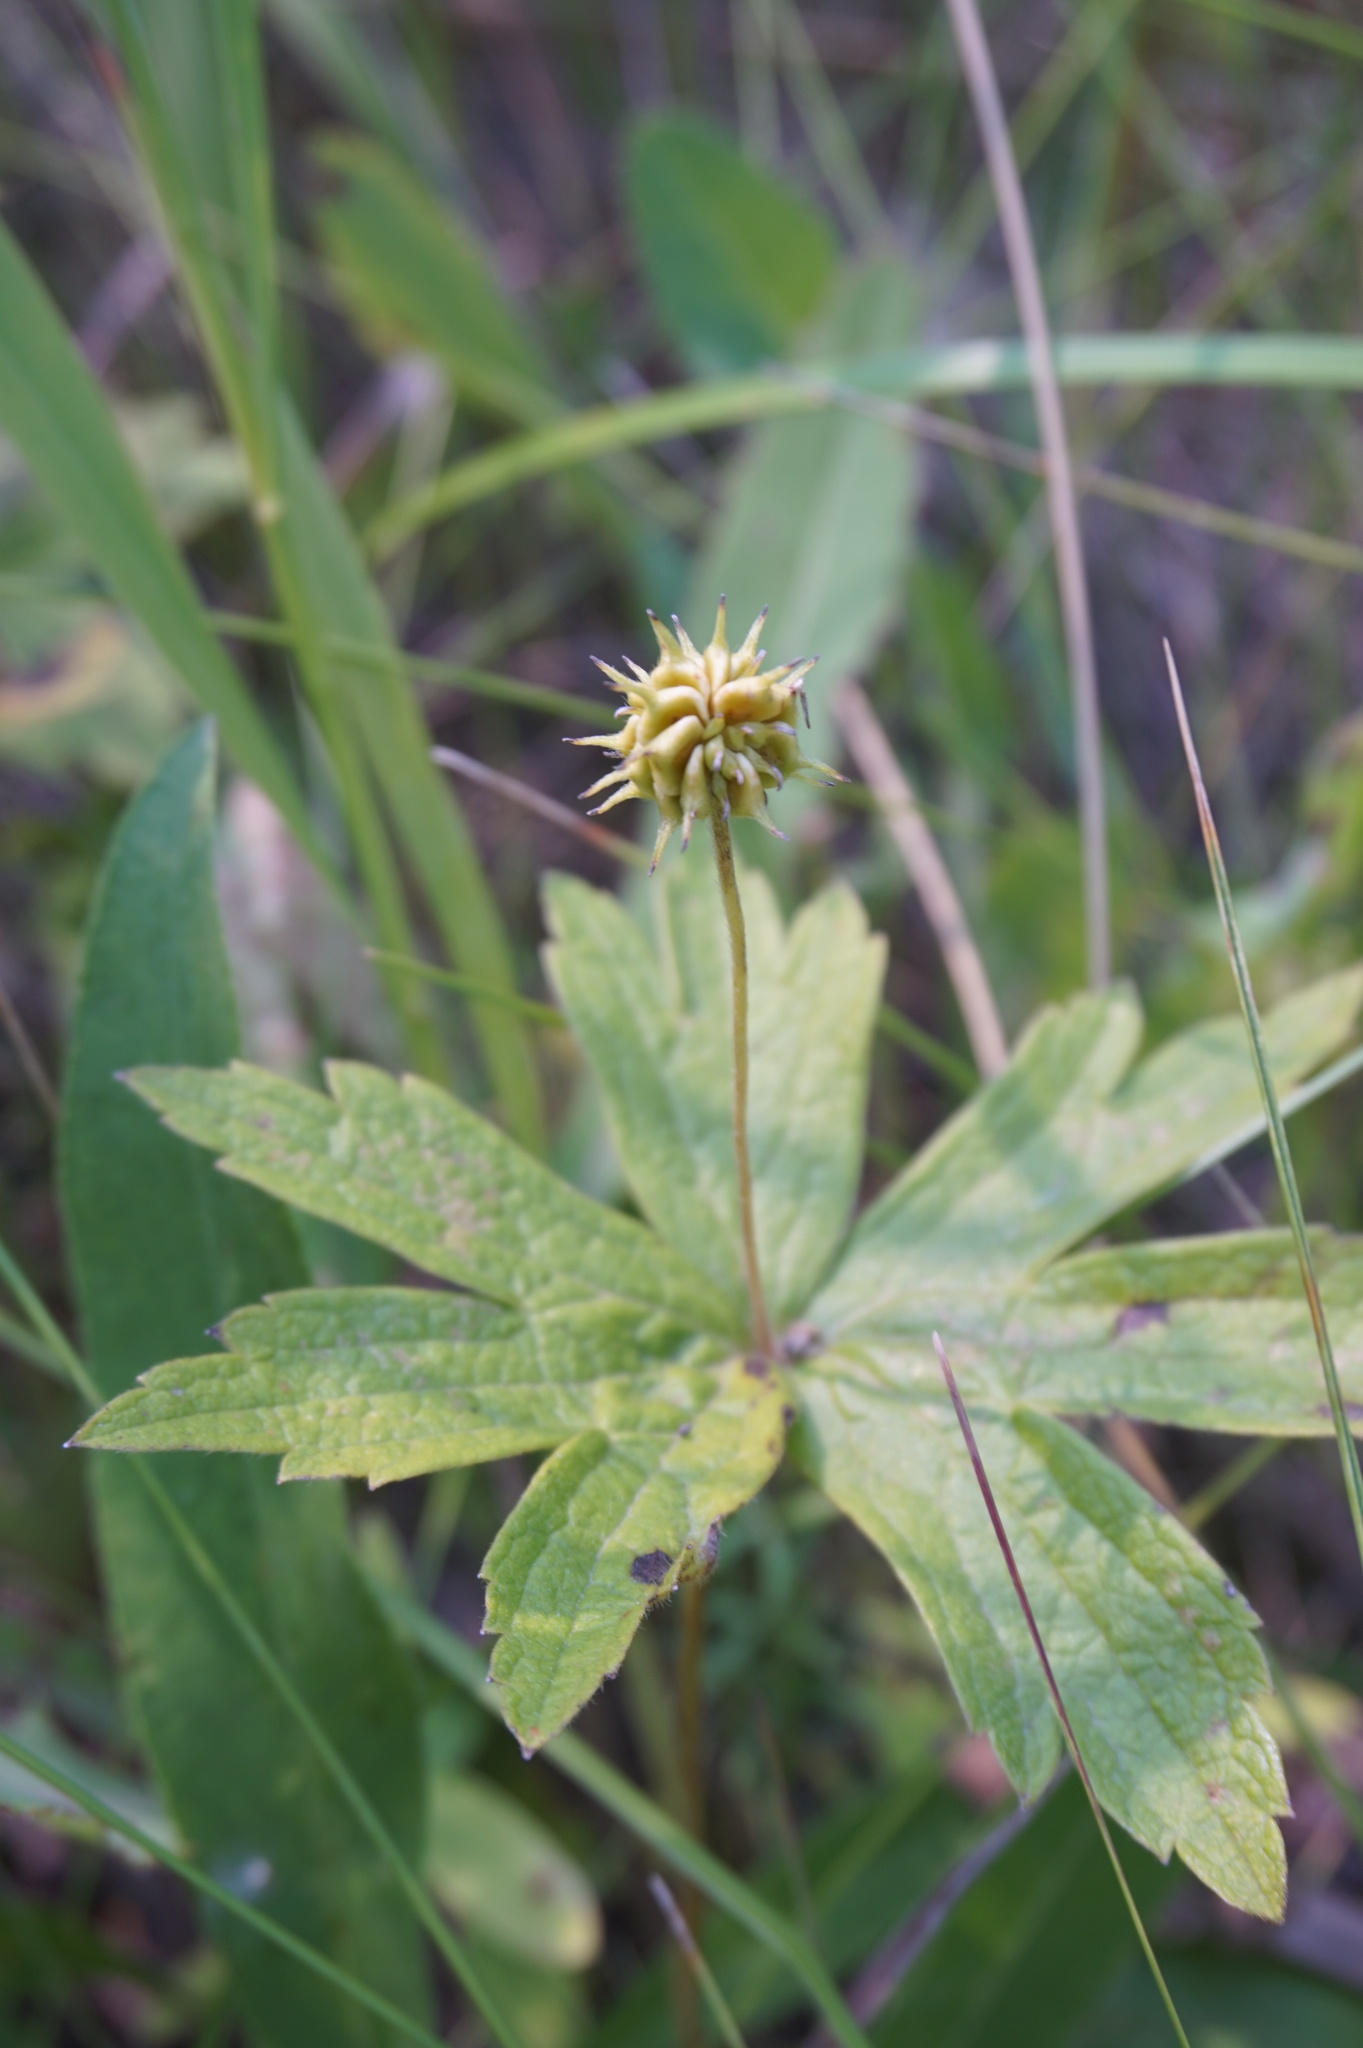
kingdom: Plantae
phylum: Tracheophyta
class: Magnoliopsida
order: Ranunculales
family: Ranunculaceae
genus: Anemonastrum
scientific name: Anemonastrum canadense
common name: Canada anemone
